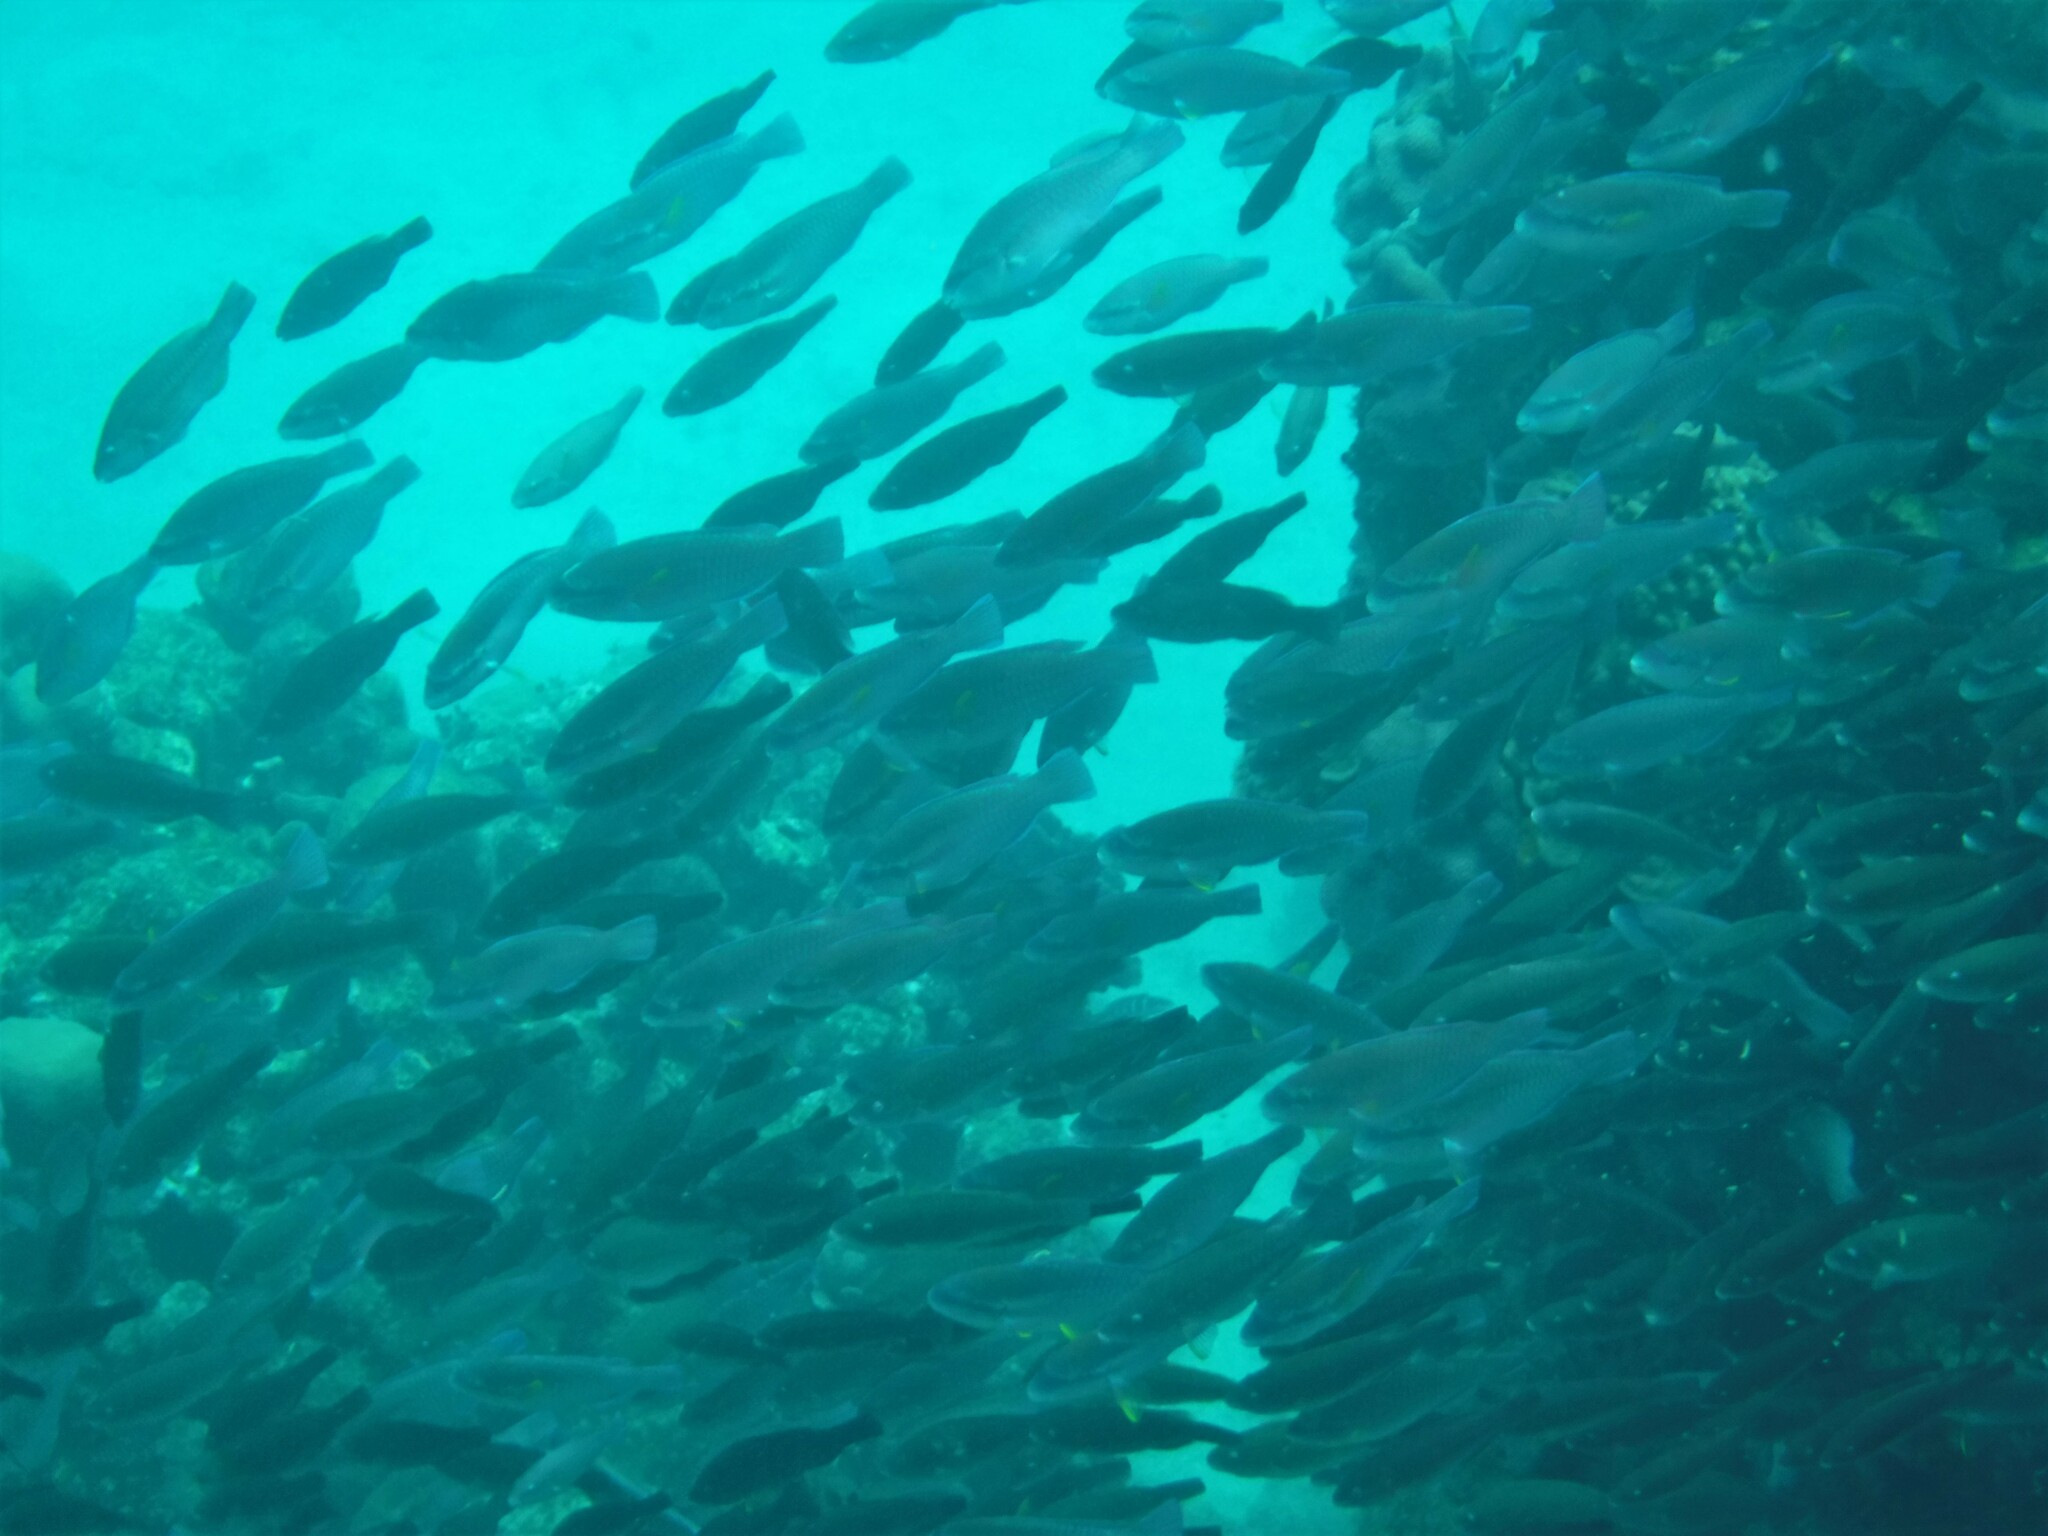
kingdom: Animalia
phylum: Chordata
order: Perciformes
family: Scaridae
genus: Scarus
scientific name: Scarus iseri
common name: Striped parrotfish
